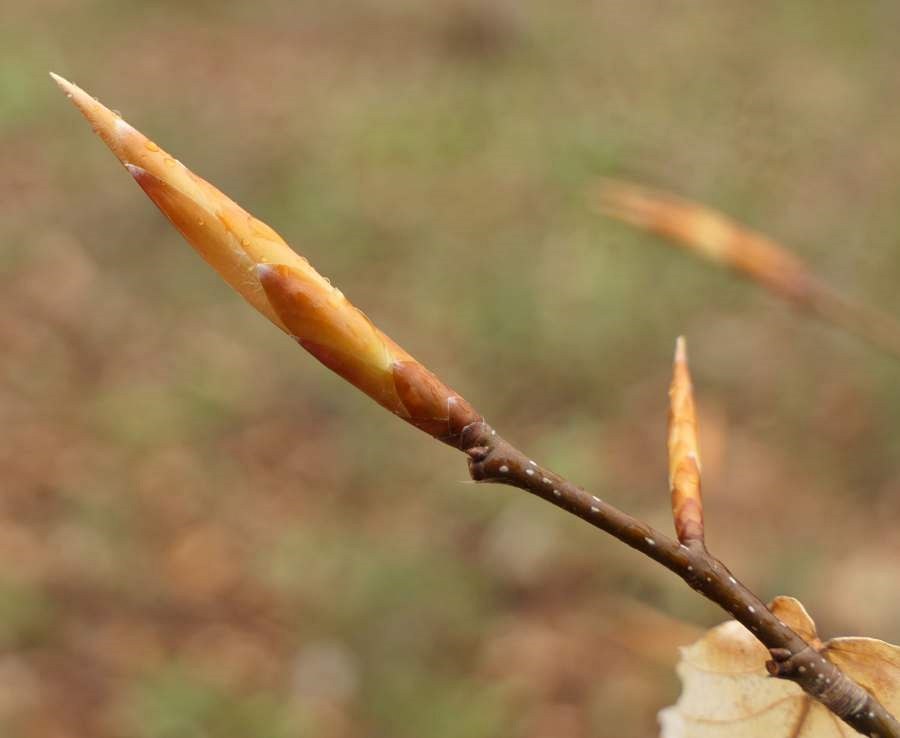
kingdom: Plantae
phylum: Tracheophyta
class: Magnoliopsida
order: Fagales
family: Fagaceae
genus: Fagus
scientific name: Fagus grandifolia
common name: American beech
